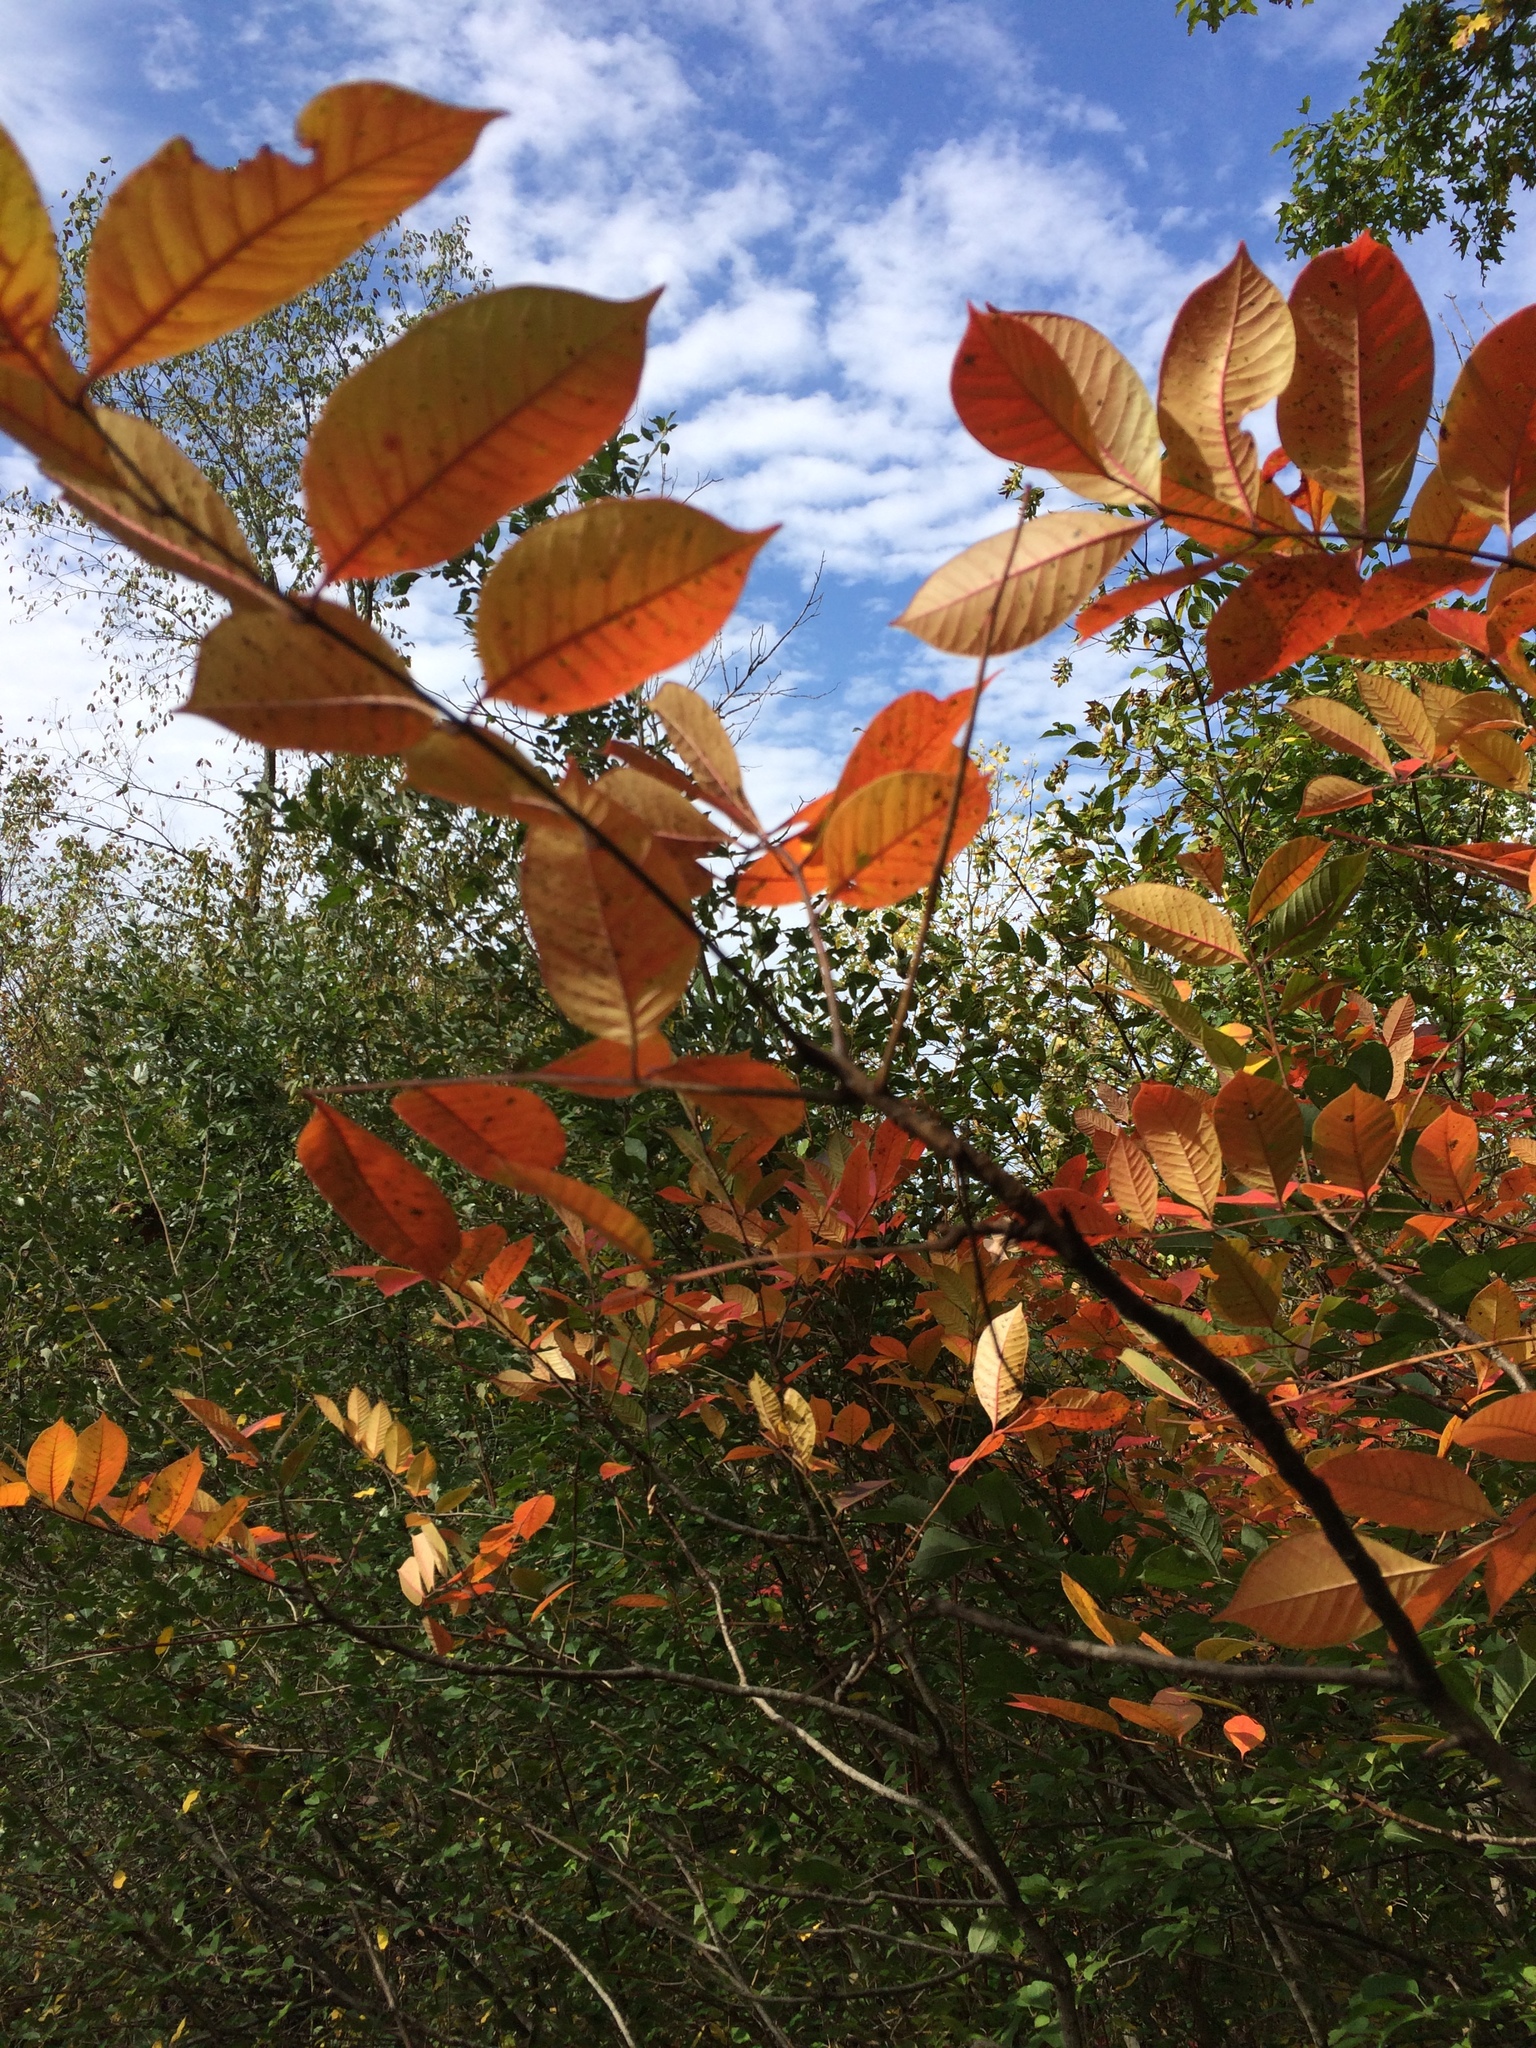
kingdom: Plantae
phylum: Tracheophyta
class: Magnoliopsida
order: Sapindales
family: Anacardiaceae
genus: Toxicodendron
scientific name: Toxicodendron vernix
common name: Poison sumac
